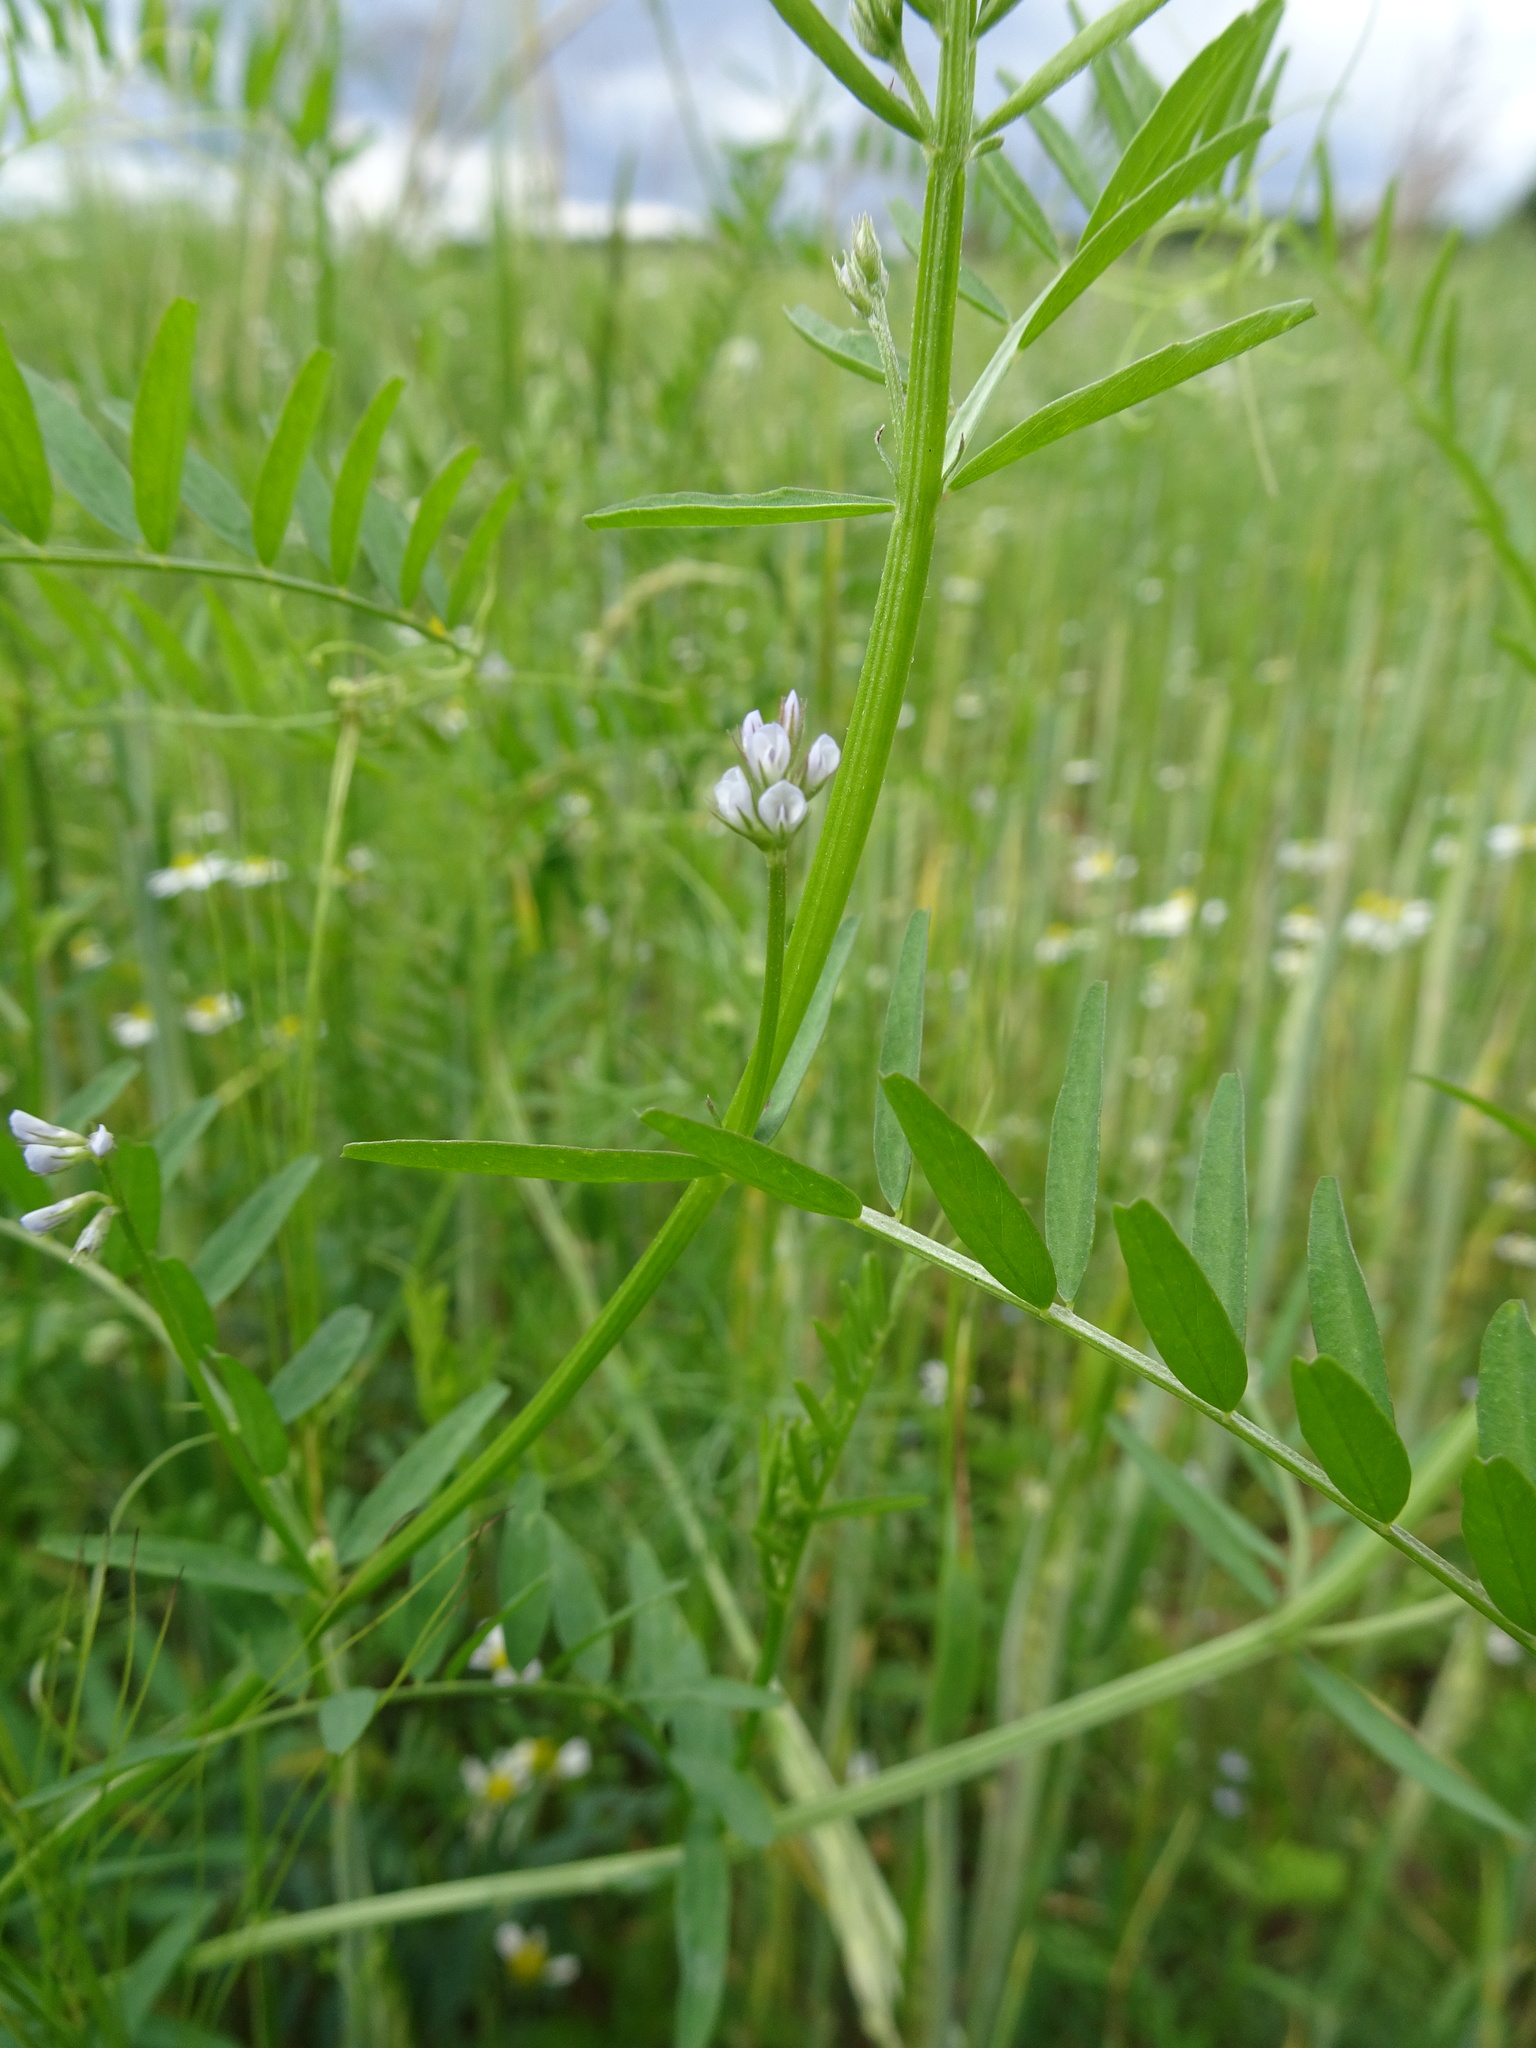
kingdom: Plantae
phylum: Tracheophyta
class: Magnoliopsida
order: Fabales
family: Fabaceae
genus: Vicia
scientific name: Vicia hirsuta
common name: Tiny vetch
